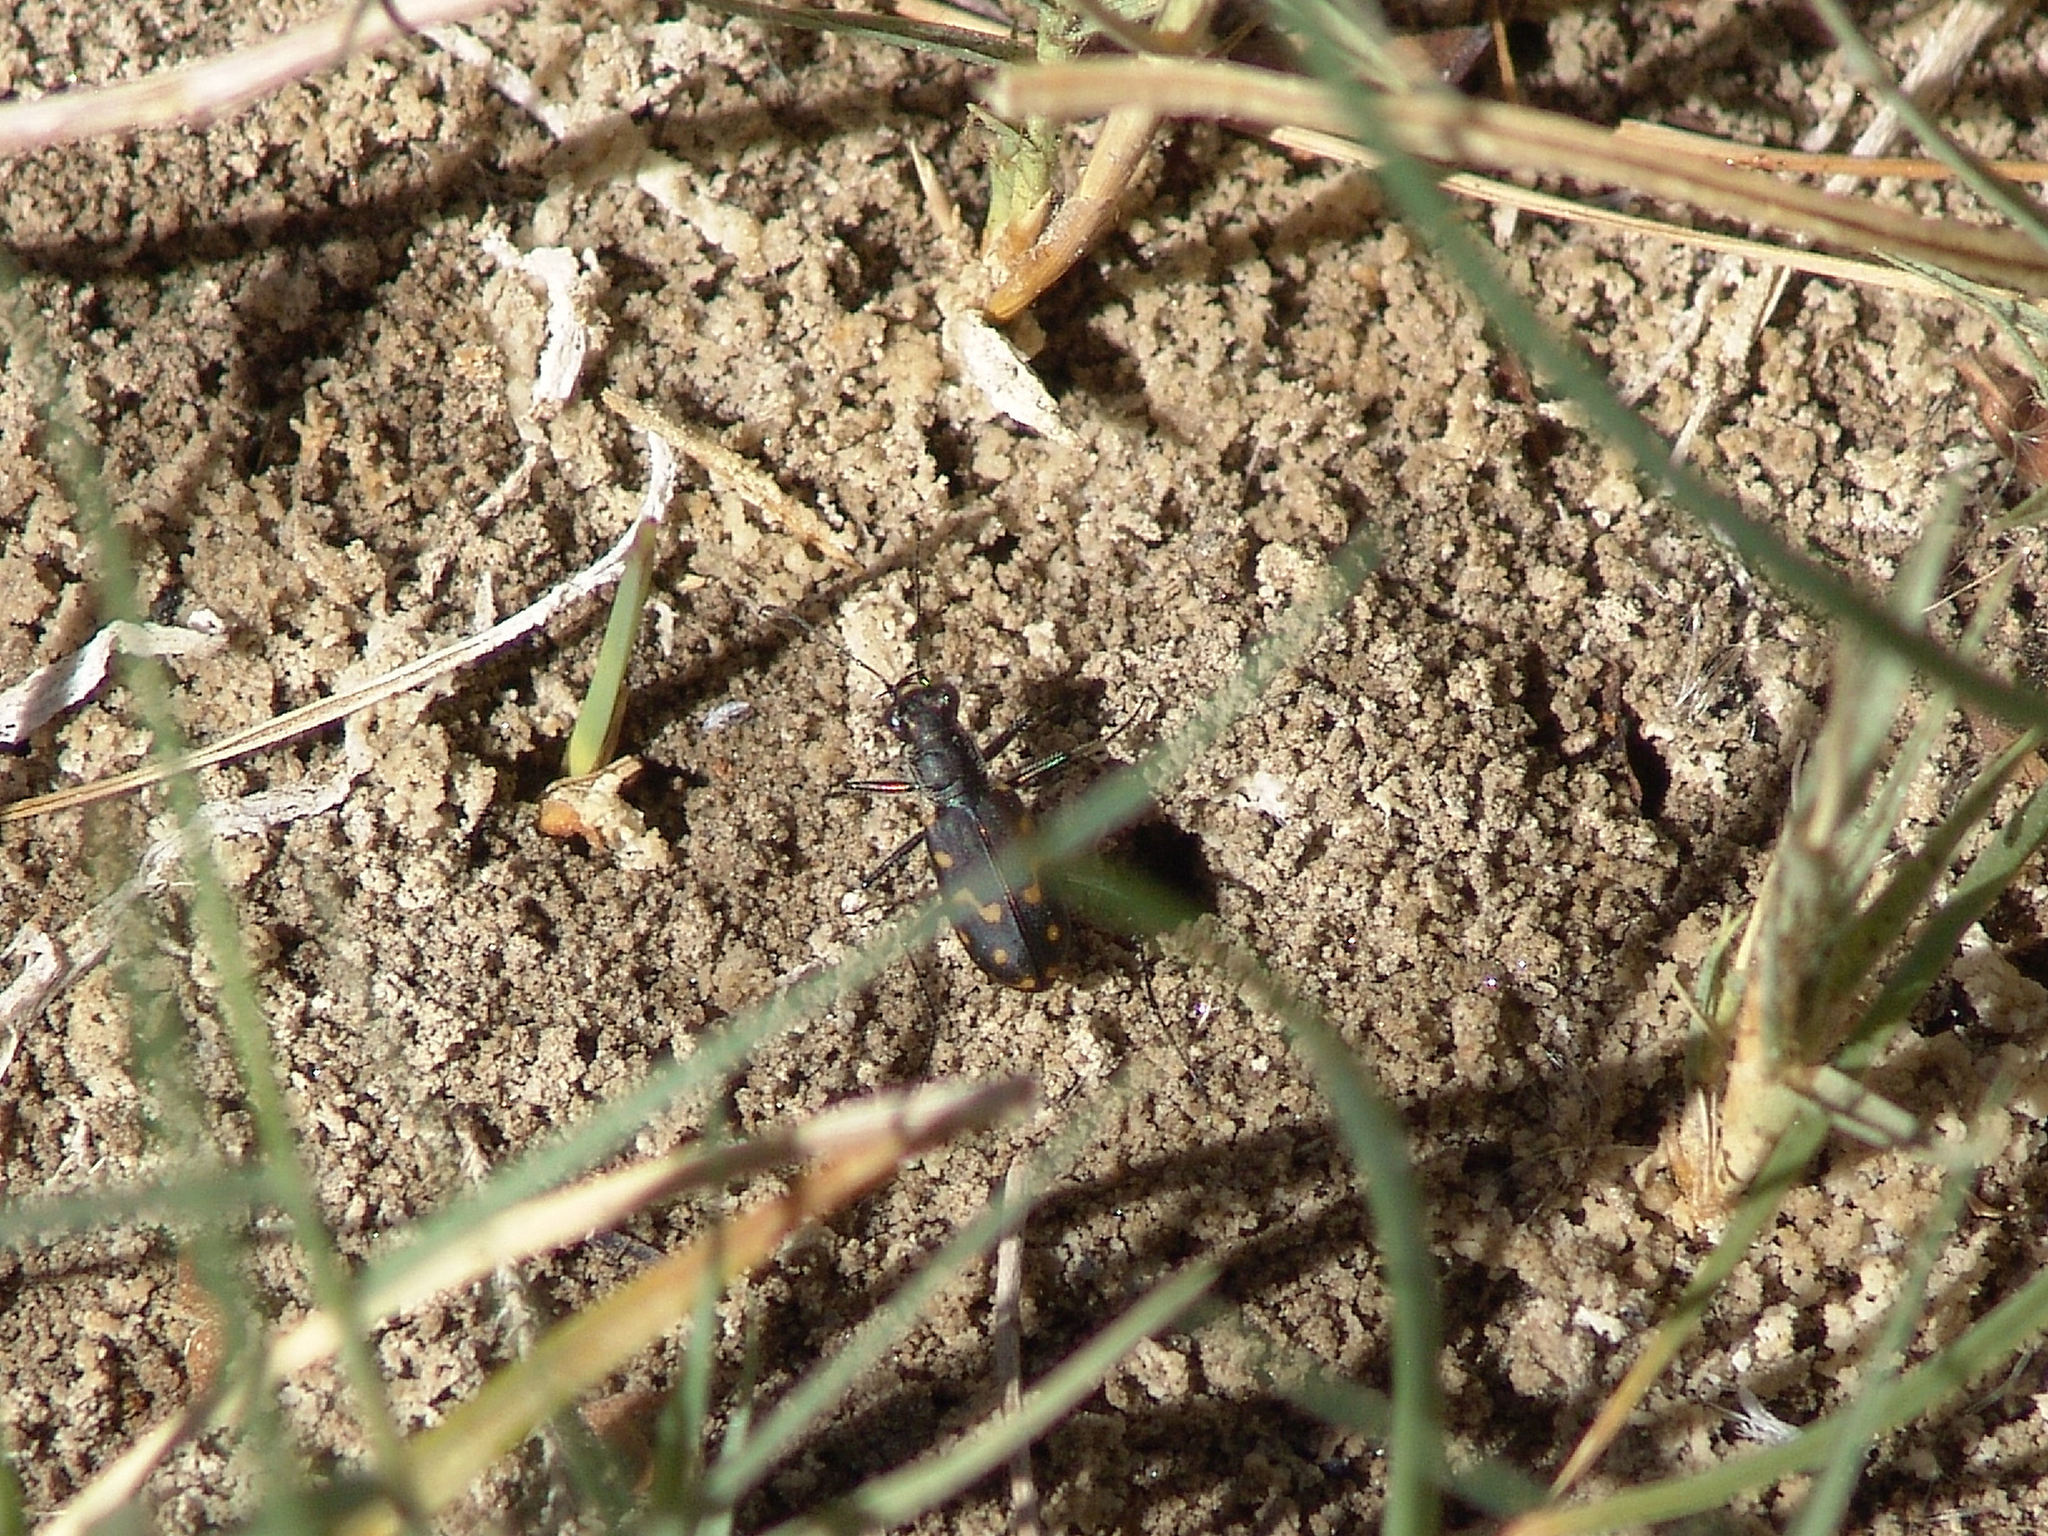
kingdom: Animalia
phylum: Arthropoda
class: Insecta
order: Coleoptera
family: Carabidae
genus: Cicindela
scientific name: Cicindela hemorrhagica
